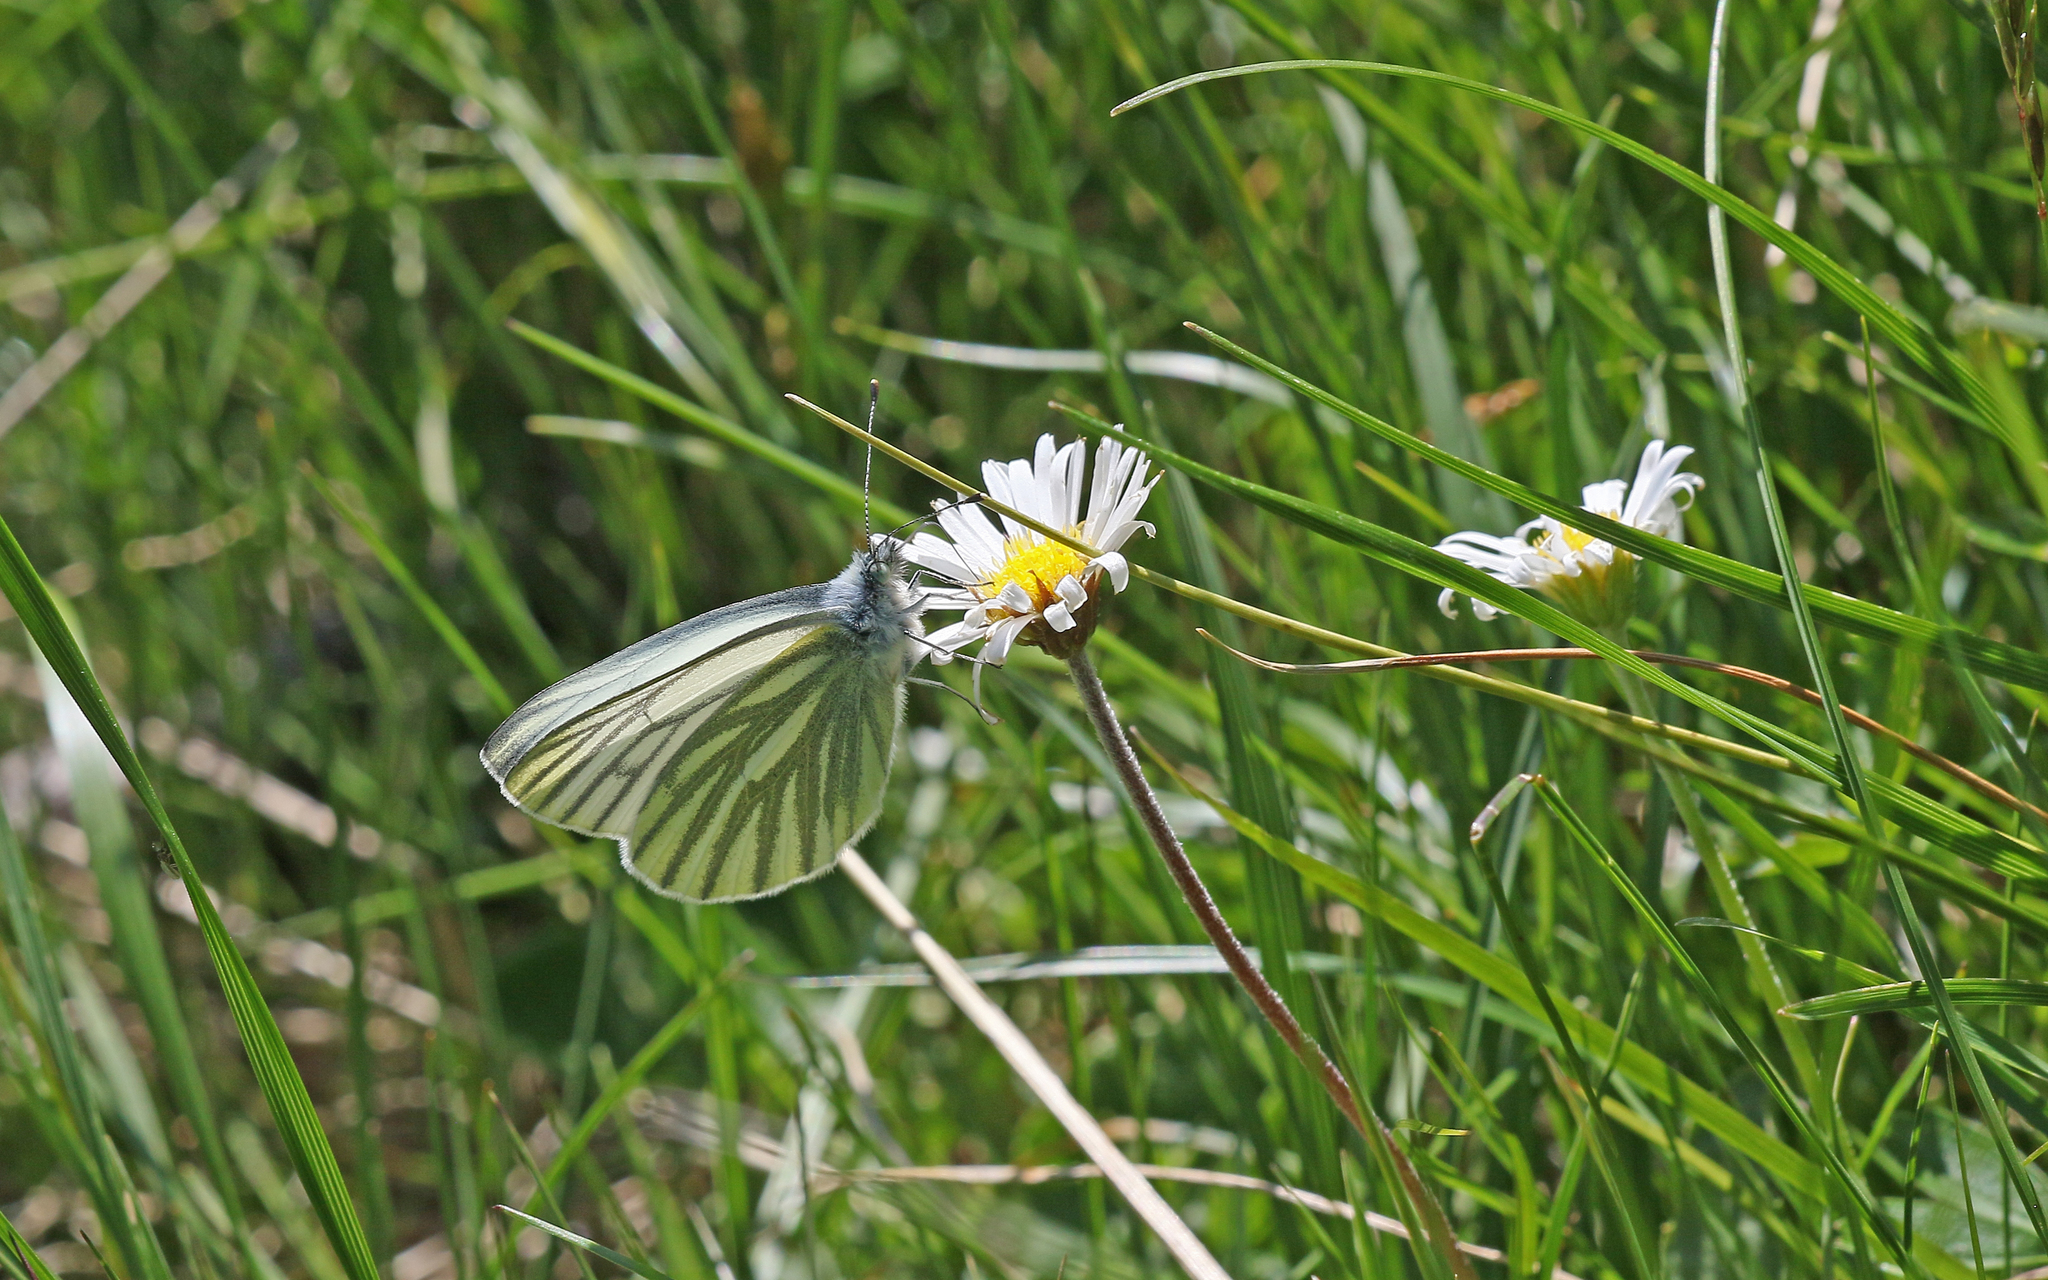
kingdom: Animalia
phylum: Arthropoda
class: Insecta
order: Lepidoptera
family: Pieridae
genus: Pieris
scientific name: Pieris bryoniae
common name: Mountain green-veined white
